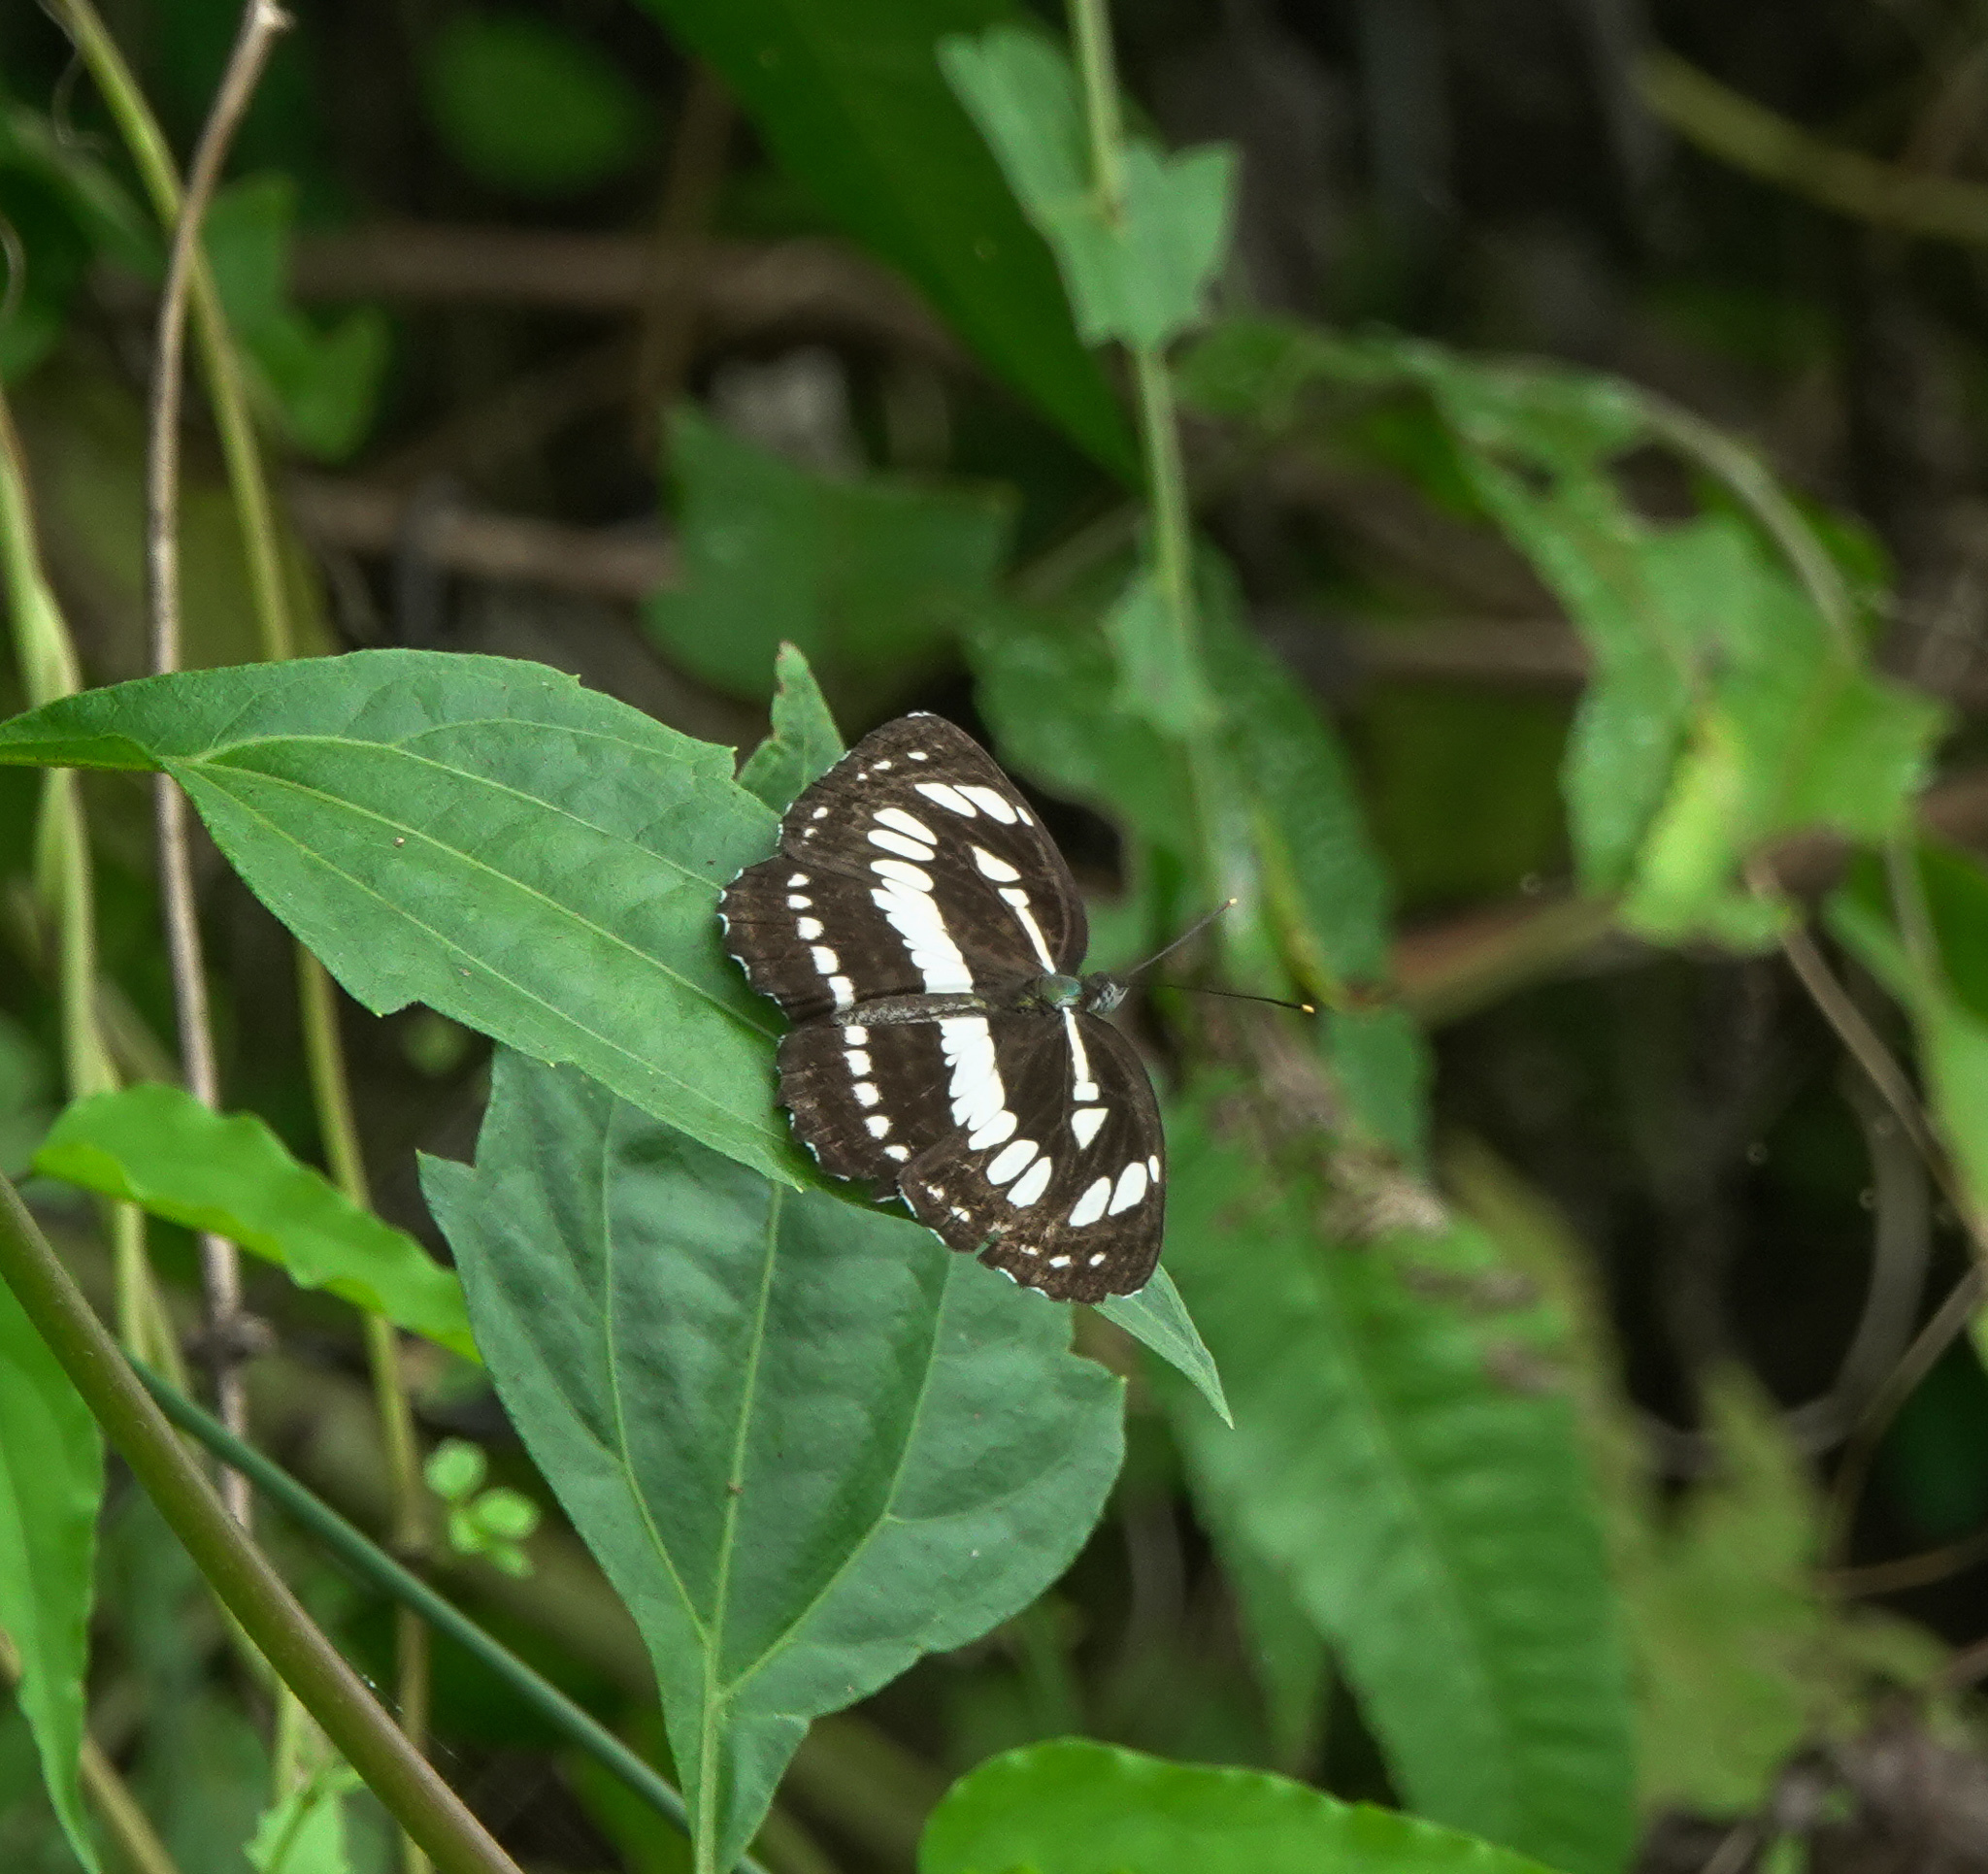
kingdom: Animalia
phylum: Arthropoda
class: Insecta
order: Lepidoptera
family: Nymphalidae
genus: Neptis
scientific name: Neptis hylas
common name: Common sailer
